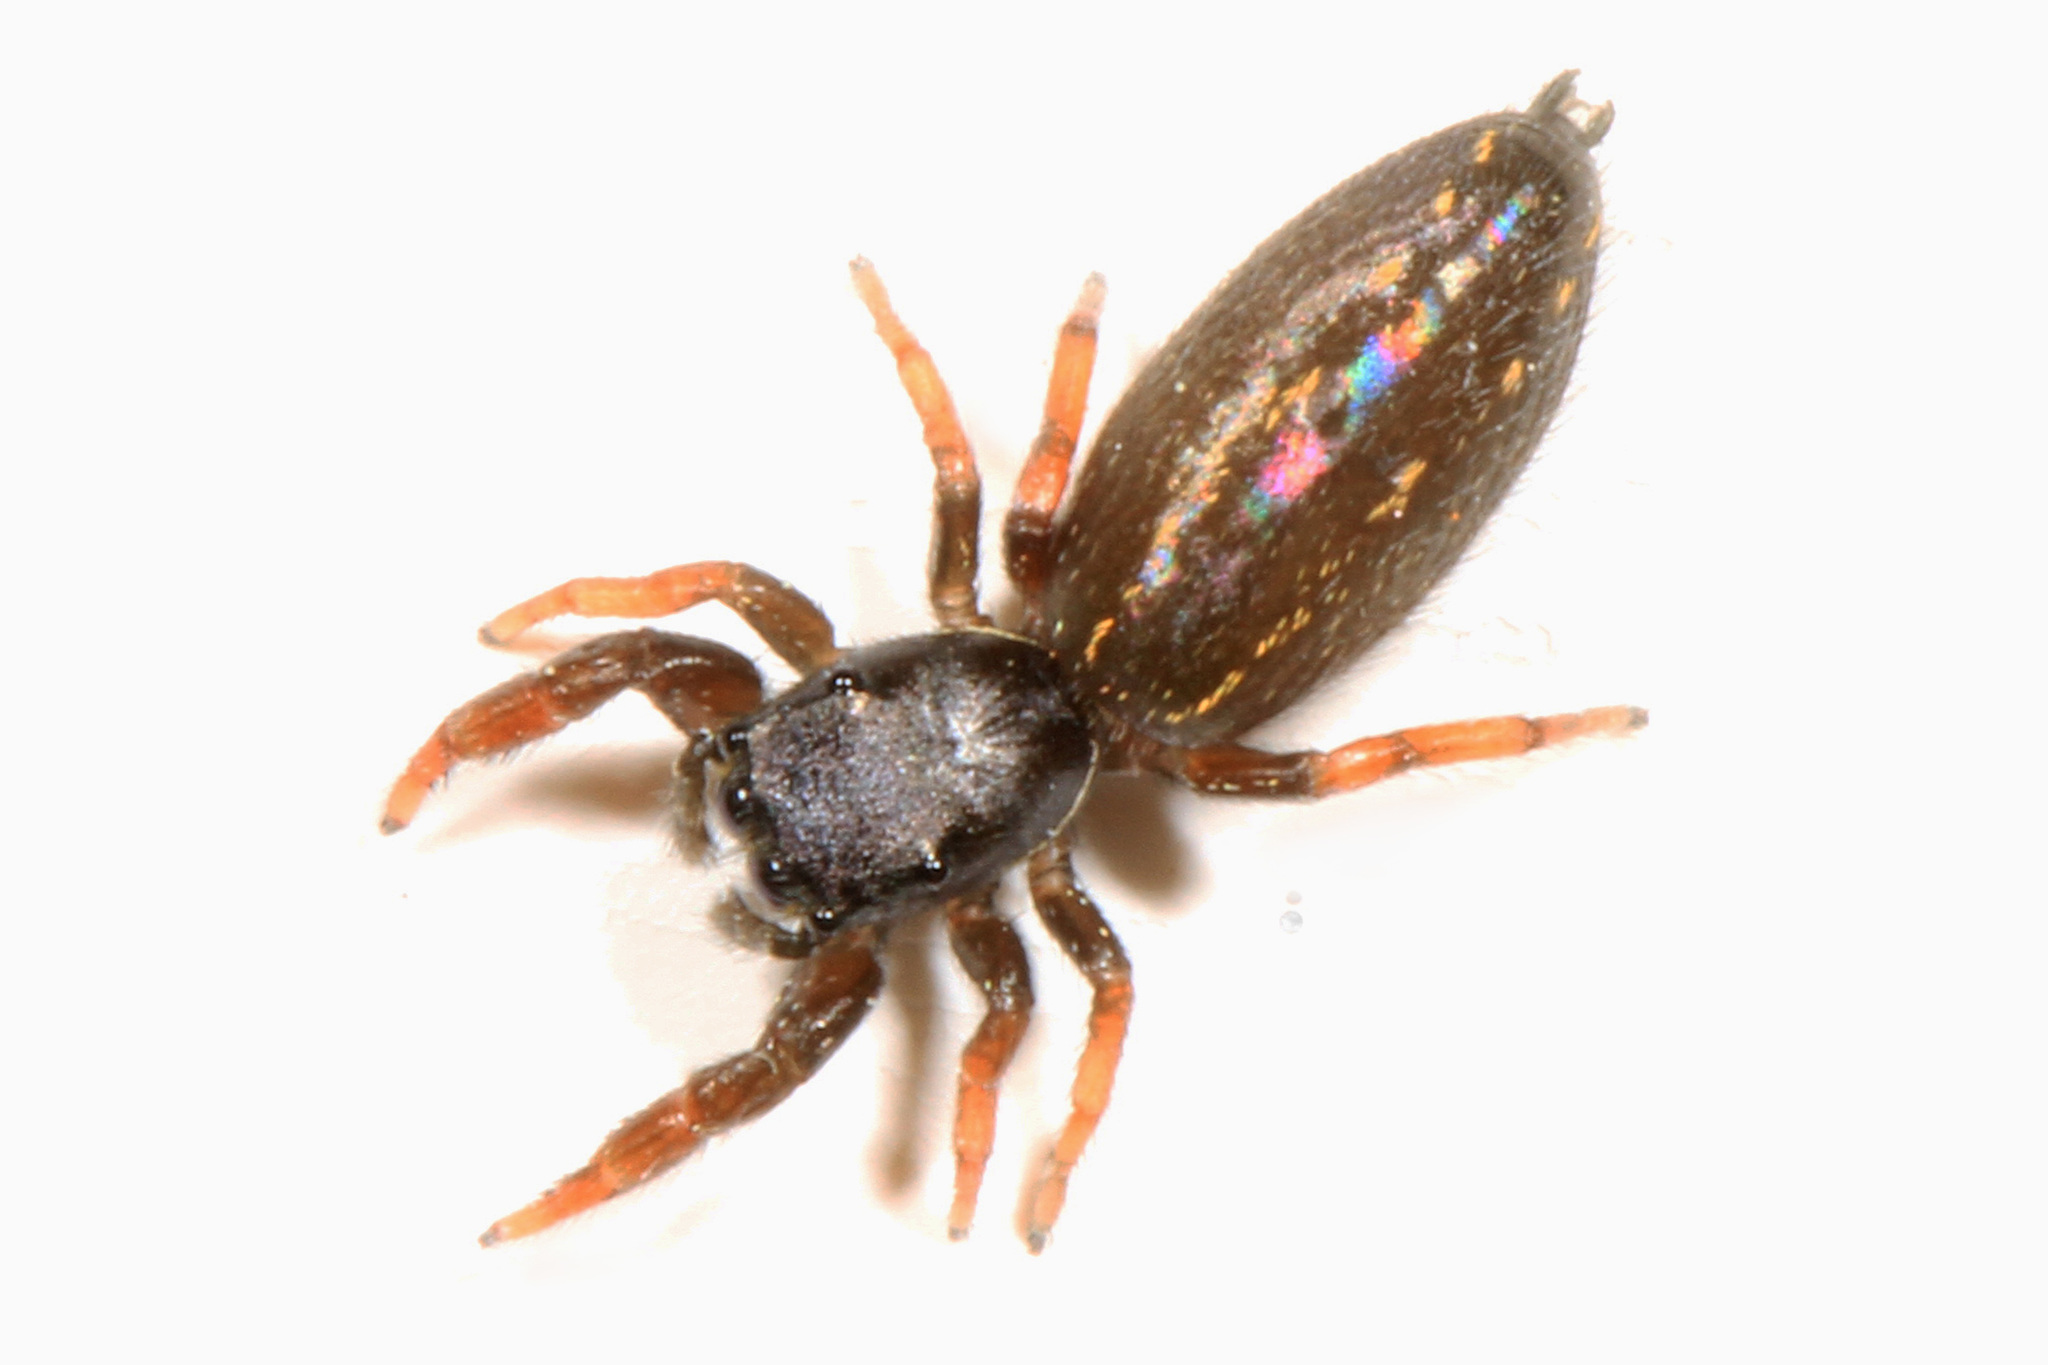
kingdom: Animalia
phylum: Arthropoda
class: Arachnida
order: Araneae
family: Salticidae
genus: Metacyrba
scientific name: Metacyrba taeniola
